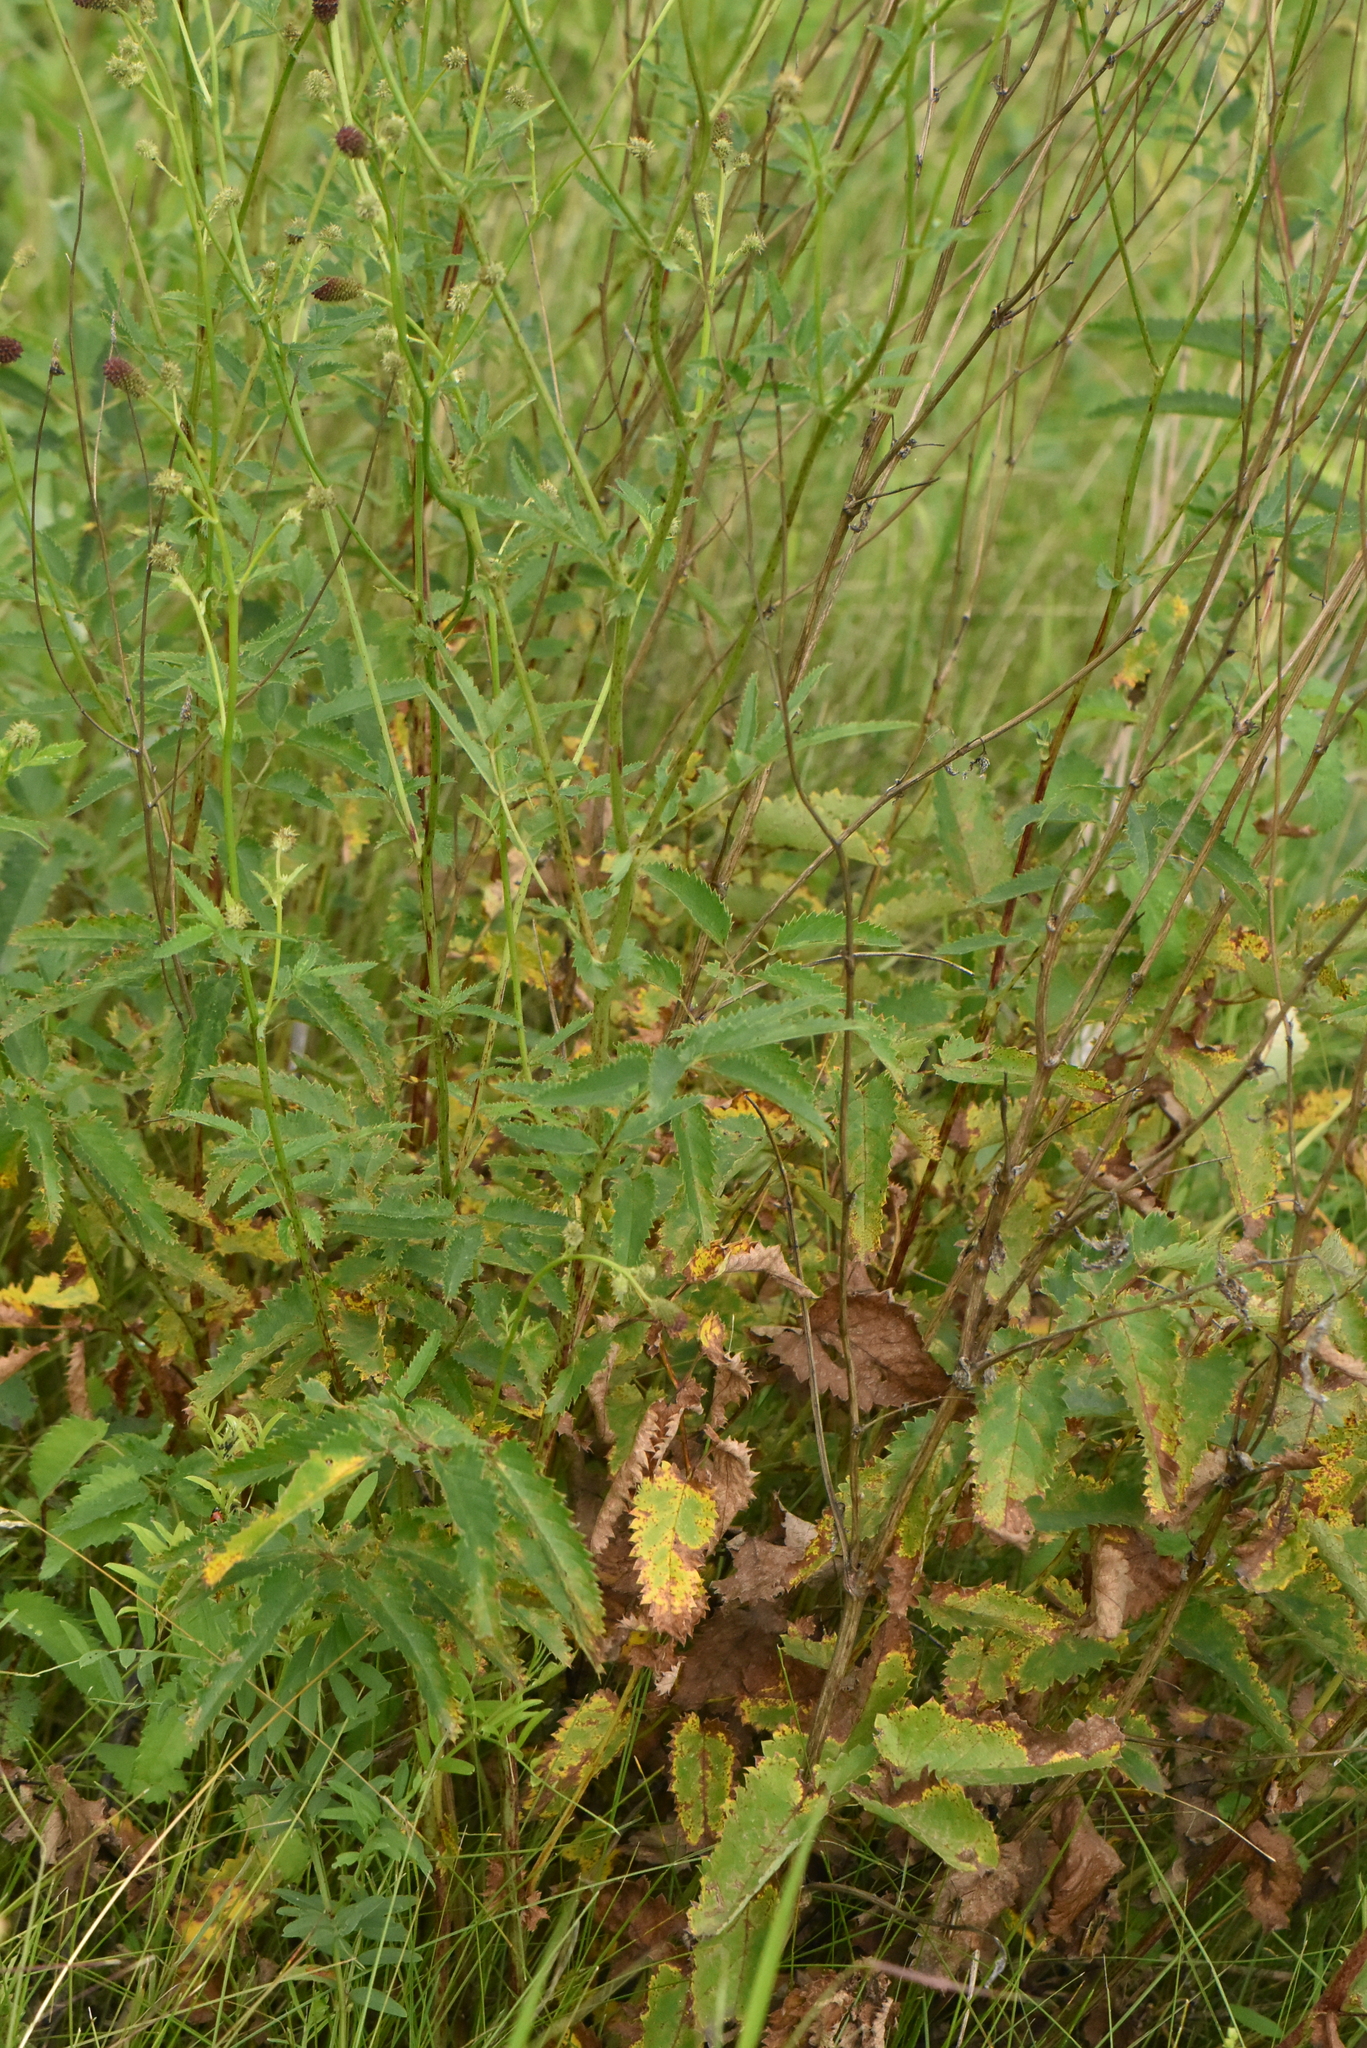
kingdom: Plantae
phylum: Tracheophyta
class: Magnoliopsida
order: Rosales
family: Rosaceae
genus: Sanguisorba
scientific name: Sanguisorba officinalis
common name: Great burnet
